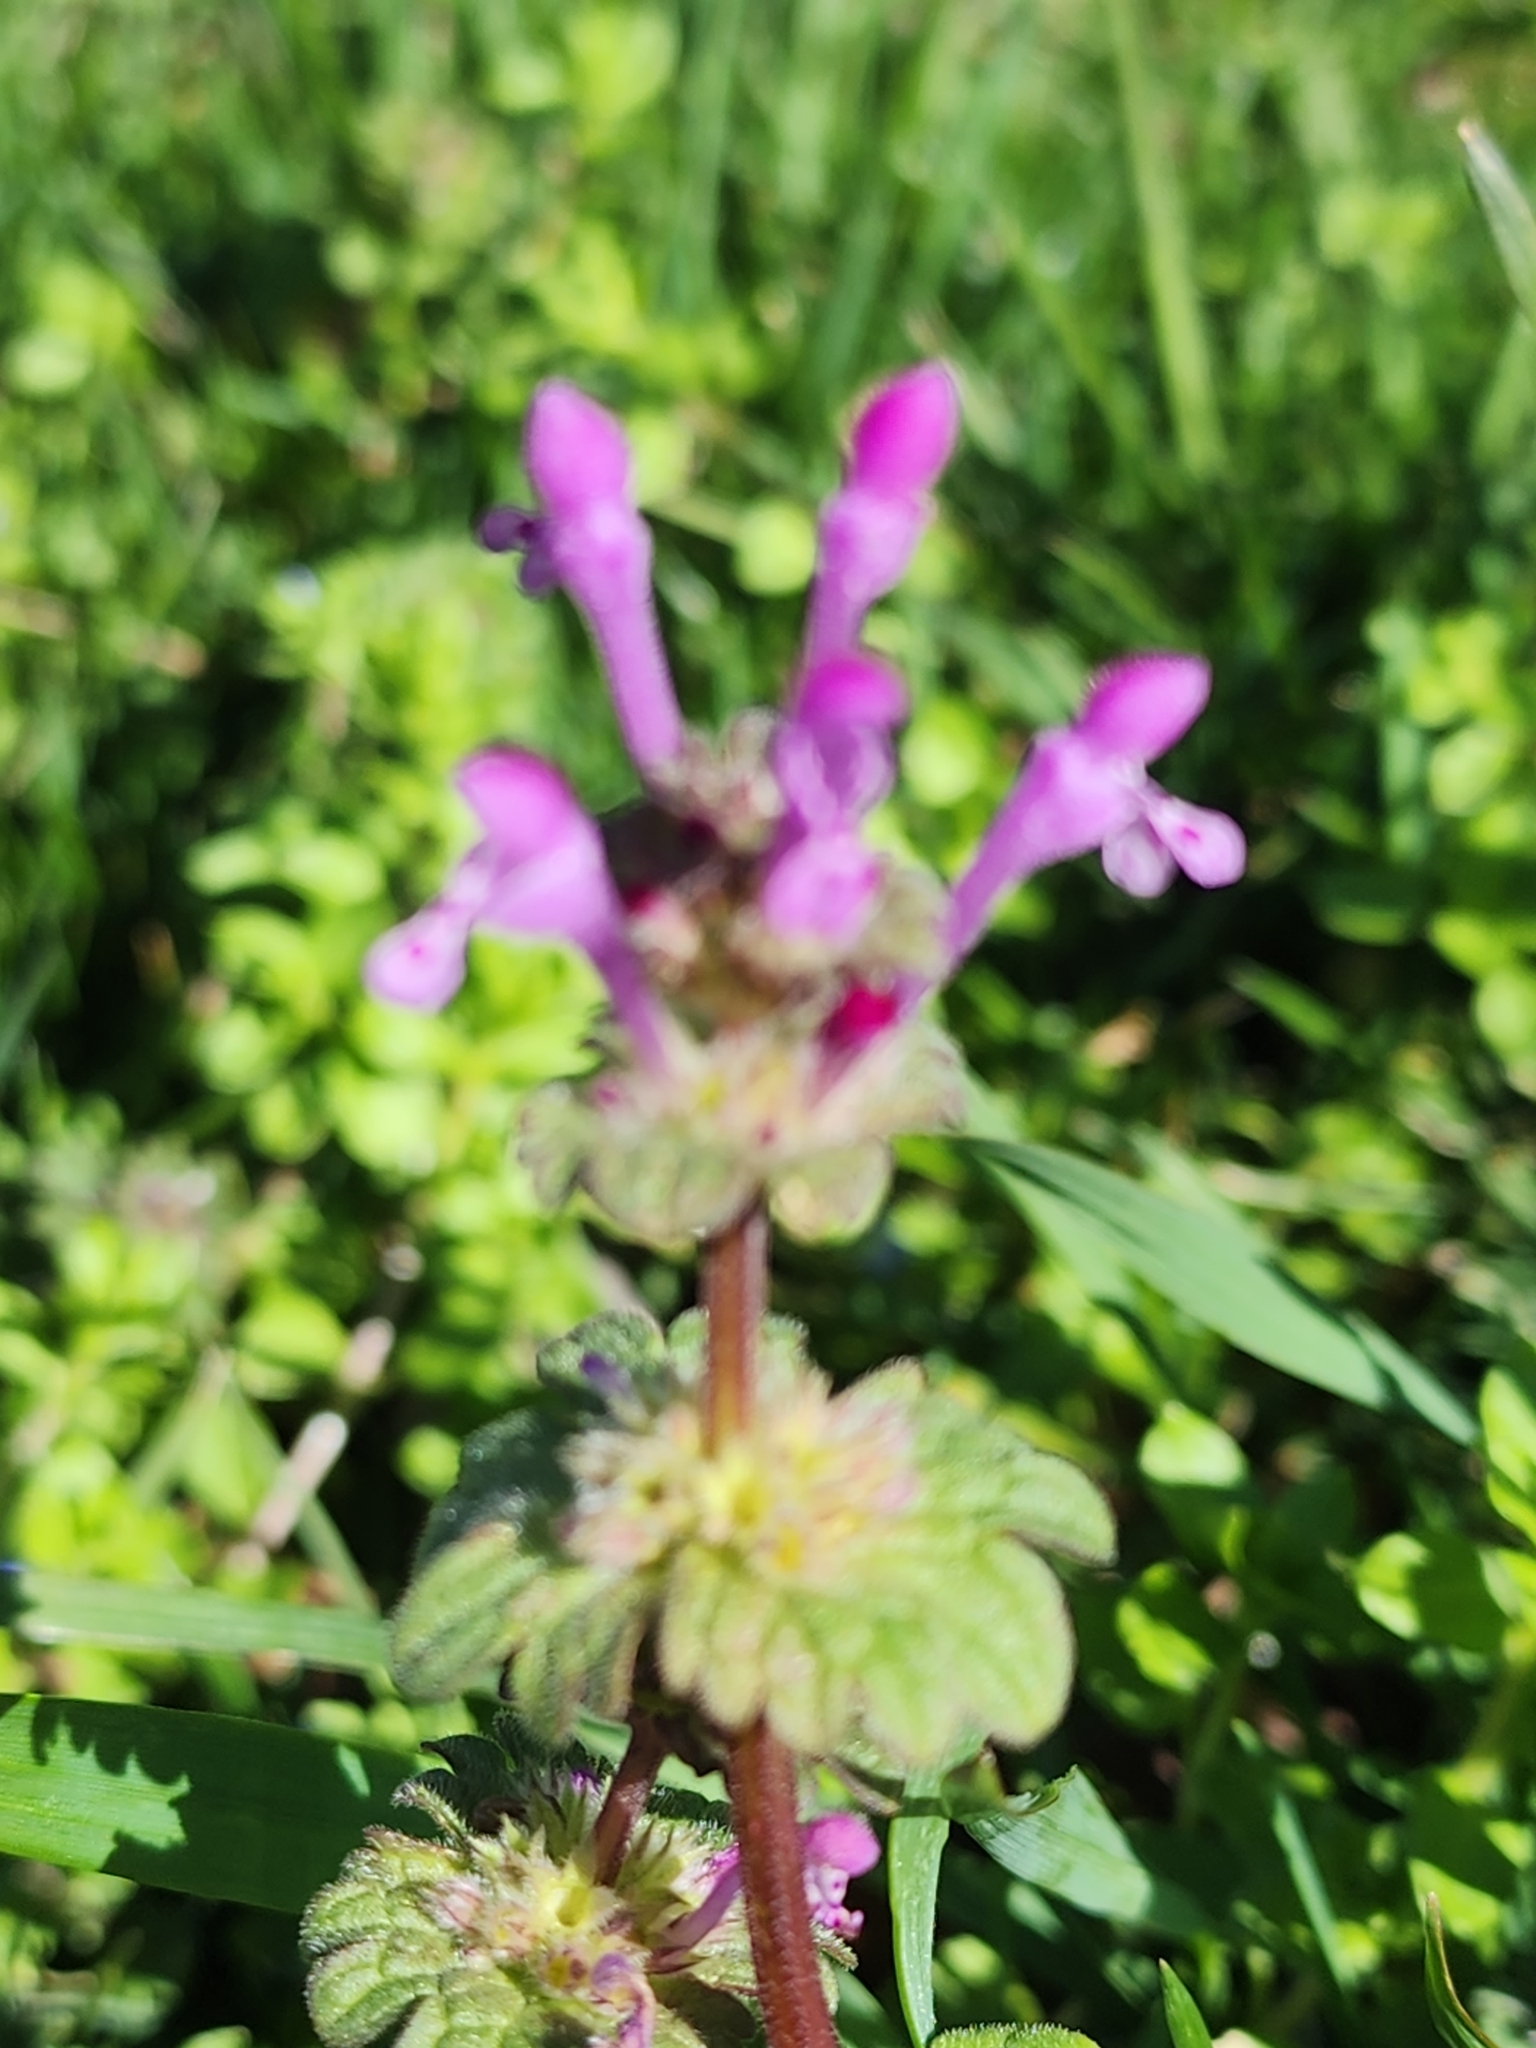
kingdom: Plantae
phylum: Tracheophyta
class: Magnoliopsida
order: Lamiales
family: Lamiaceae
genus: Lamium
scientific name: Lamium amplexicaule
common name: Henbit dead-nettle
